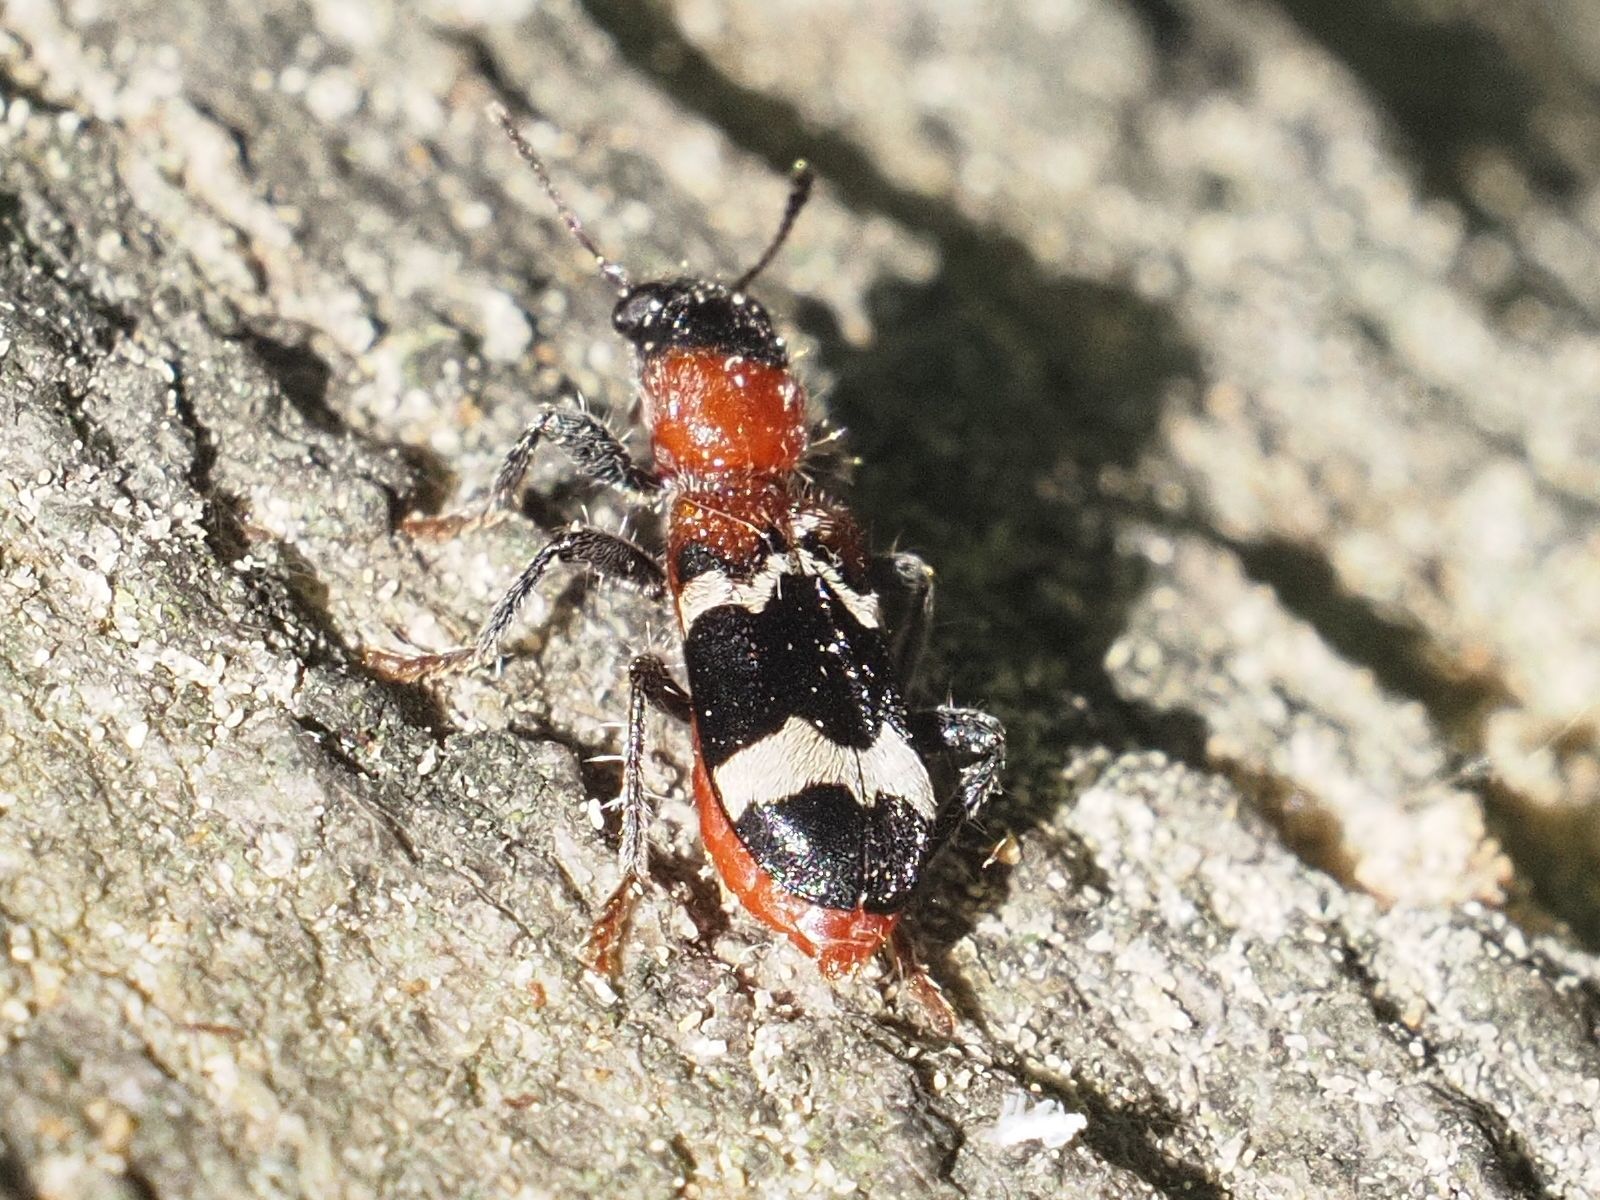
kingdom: Animalia
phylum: Arthropoda
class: Insecta
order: Coleoptera
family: Cleridae
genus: Thanasimus
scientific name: Thanasimus formicarius
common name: Ant beetle
